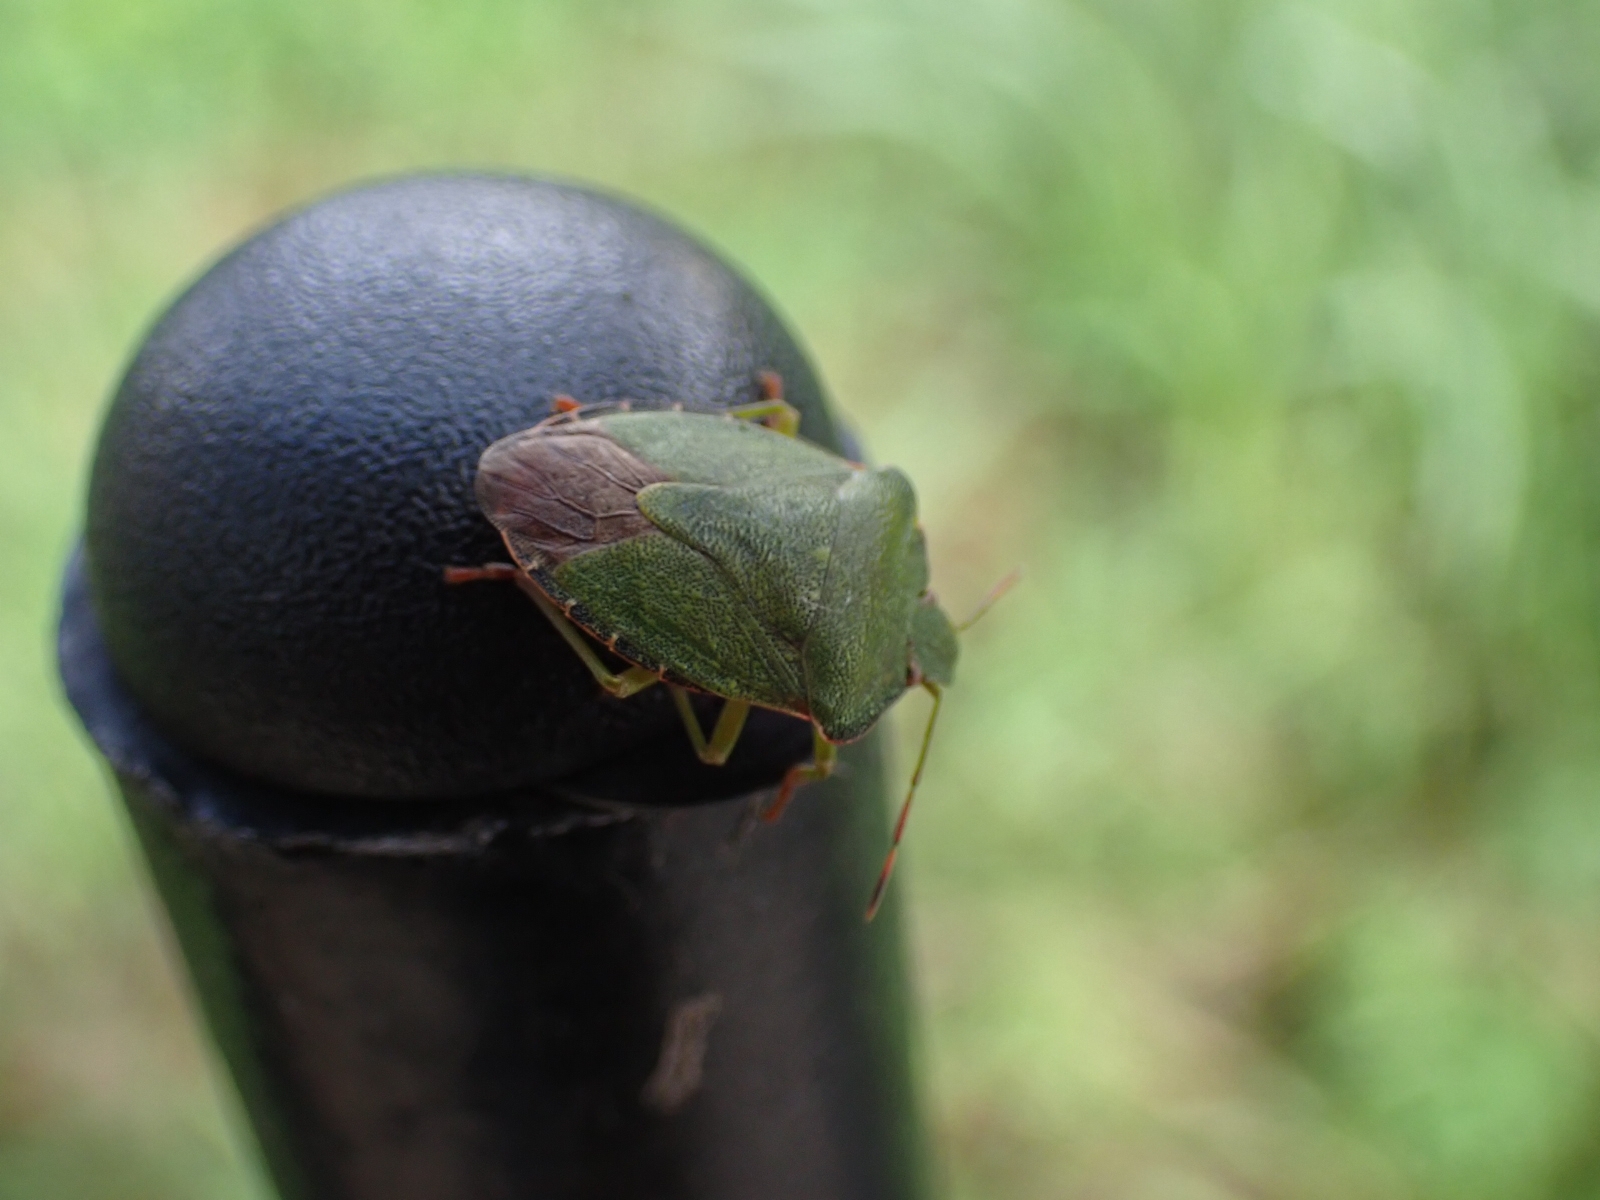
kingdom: Animalia
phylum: Arthropoda
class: Insecta
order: Hemiptera
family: Pentatomidae
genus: Palomena
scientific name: Palomena prasina
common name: Green shieldbug
